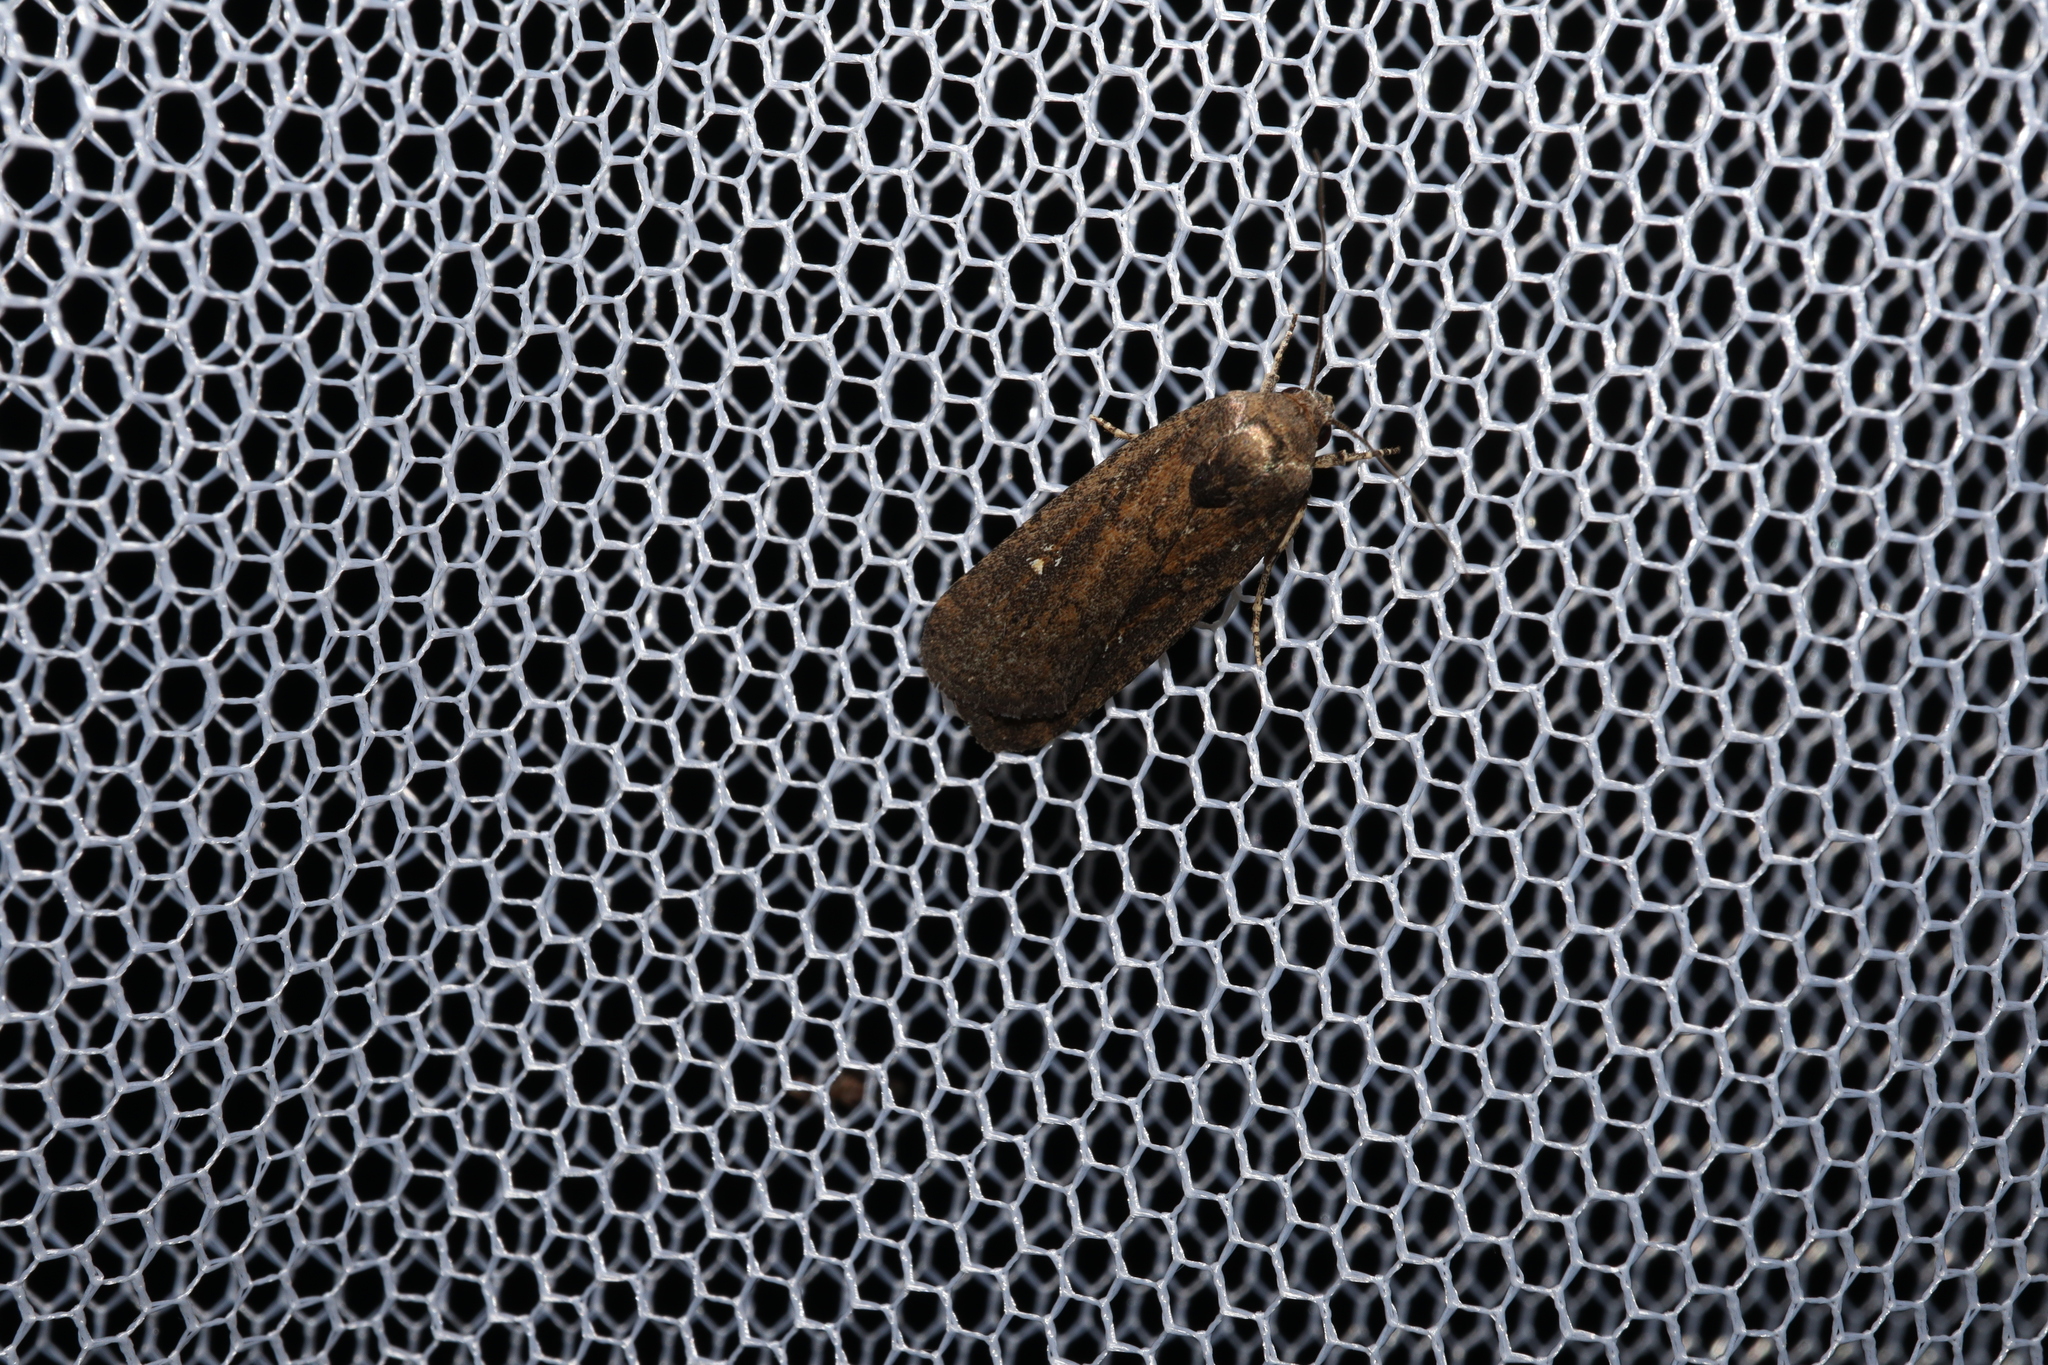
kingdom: Animalia
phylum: Arthropoda
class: Insecta
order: Lepidoptera
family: Noctuidae
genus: Athetis
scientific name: Athetis tenuis
